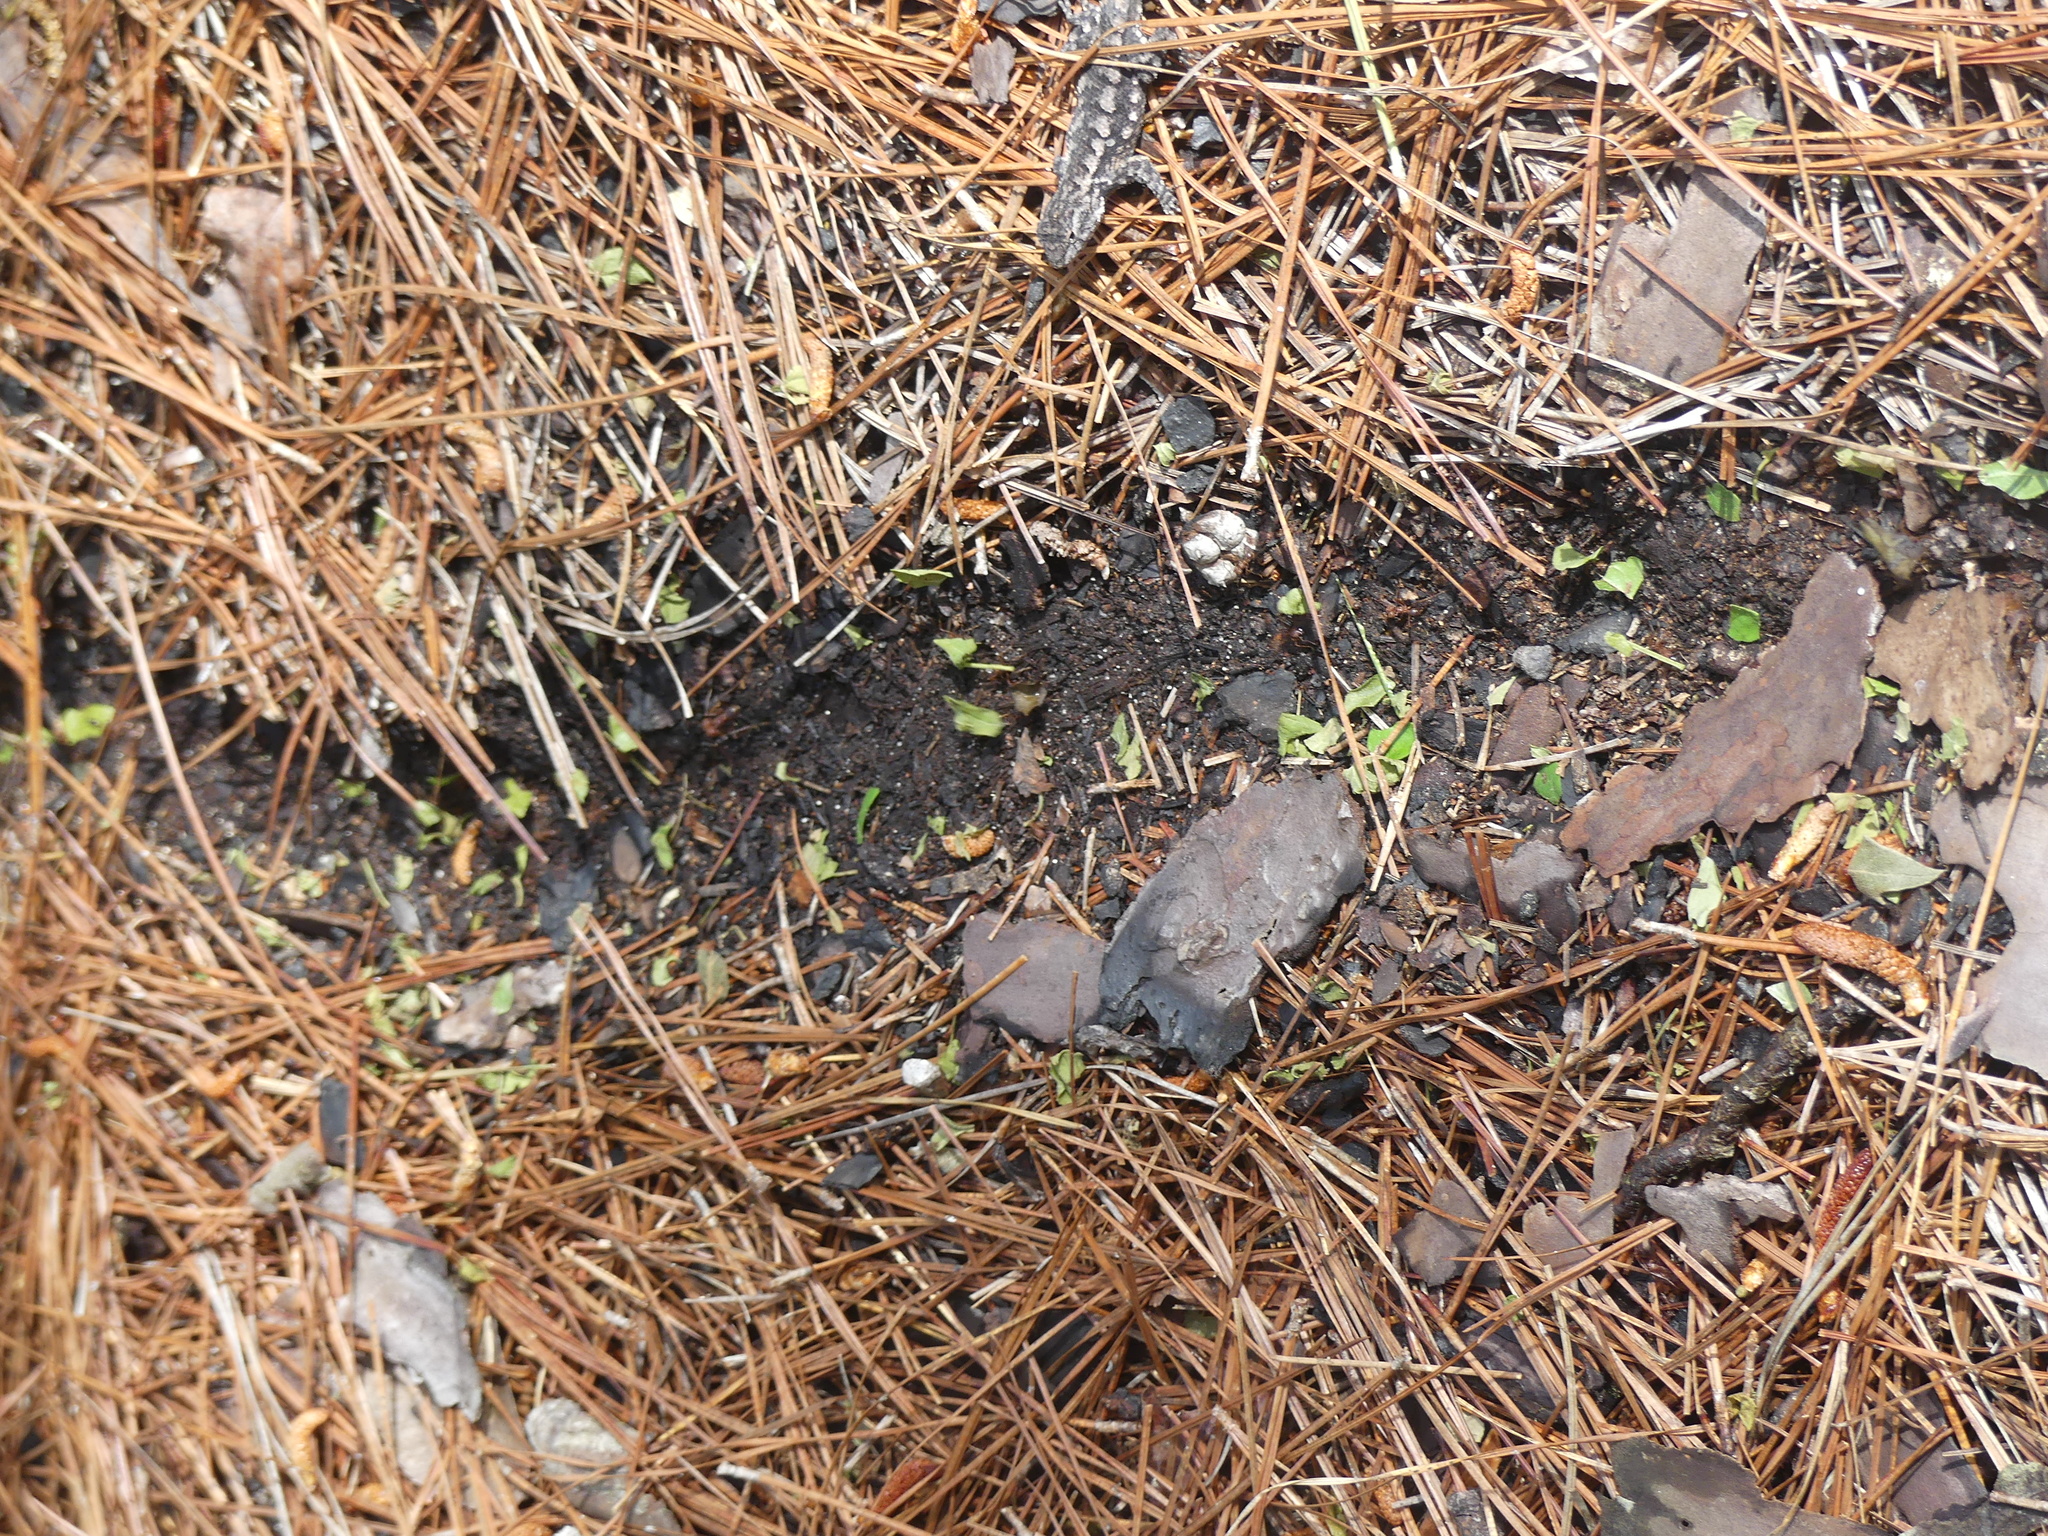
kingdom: Animalia
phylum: Arthropoda
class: Insecta
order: Hymenoptera
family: Formicidae
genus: Atta
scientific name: Atta texana
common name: Texas leafcutting ant
